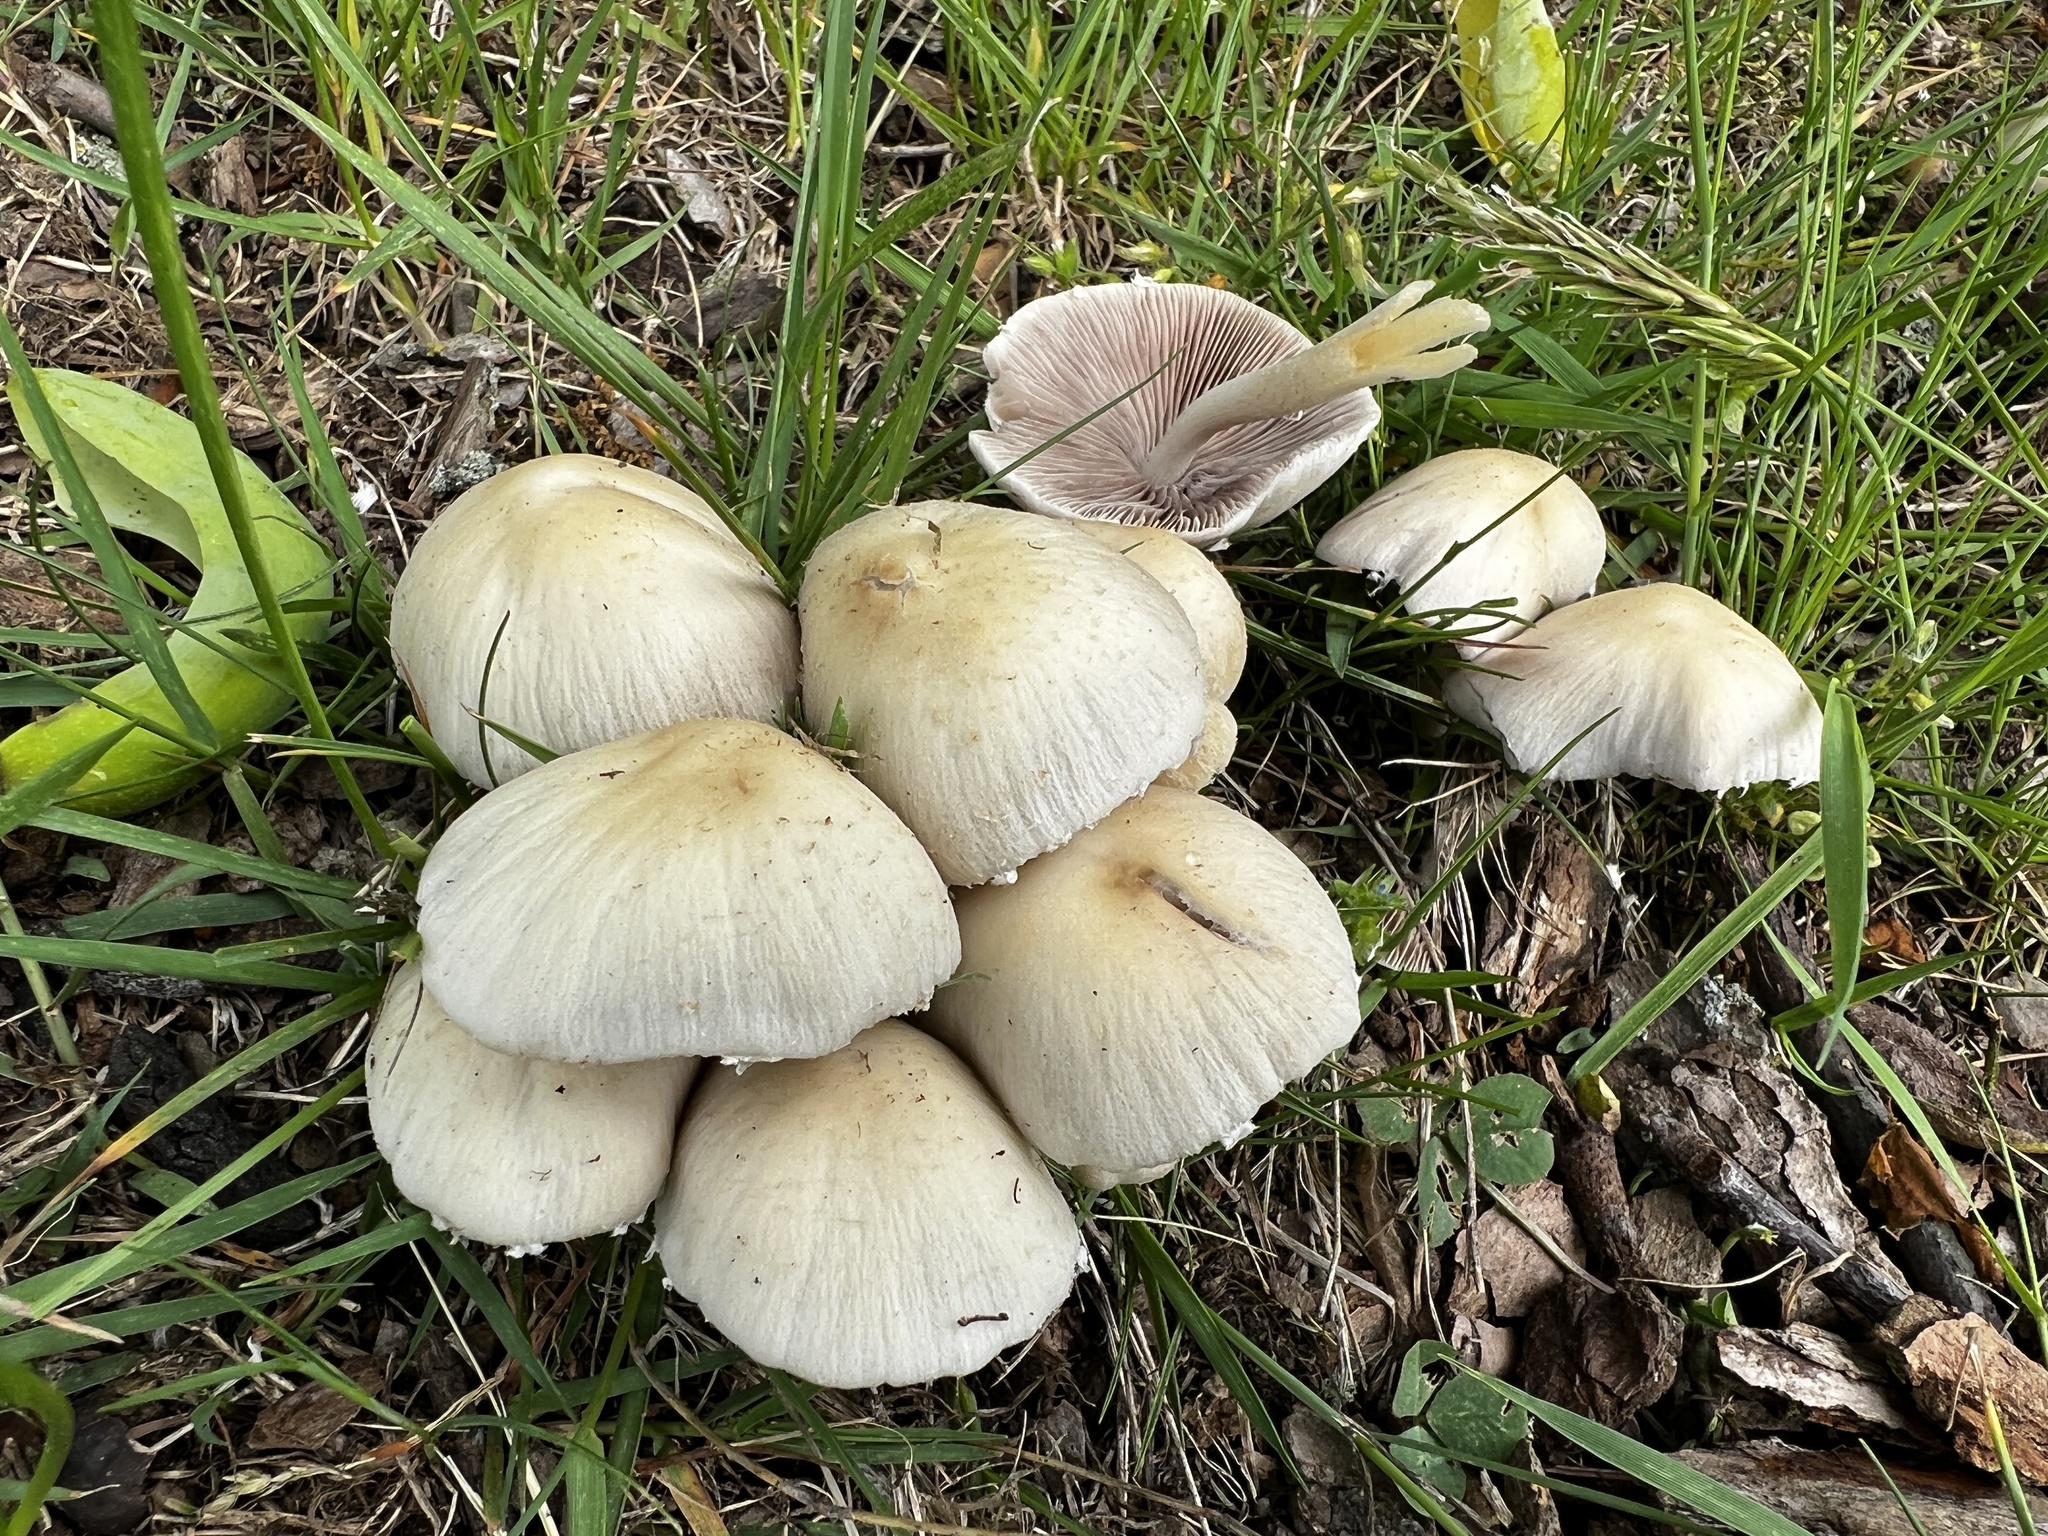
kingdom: Fungi
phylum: Basidiomycota
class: Agaricomycetes
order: Agaricales
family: Psathyrellaceae
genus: Candolleomyces
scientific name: Candolleomyces candolleanus
